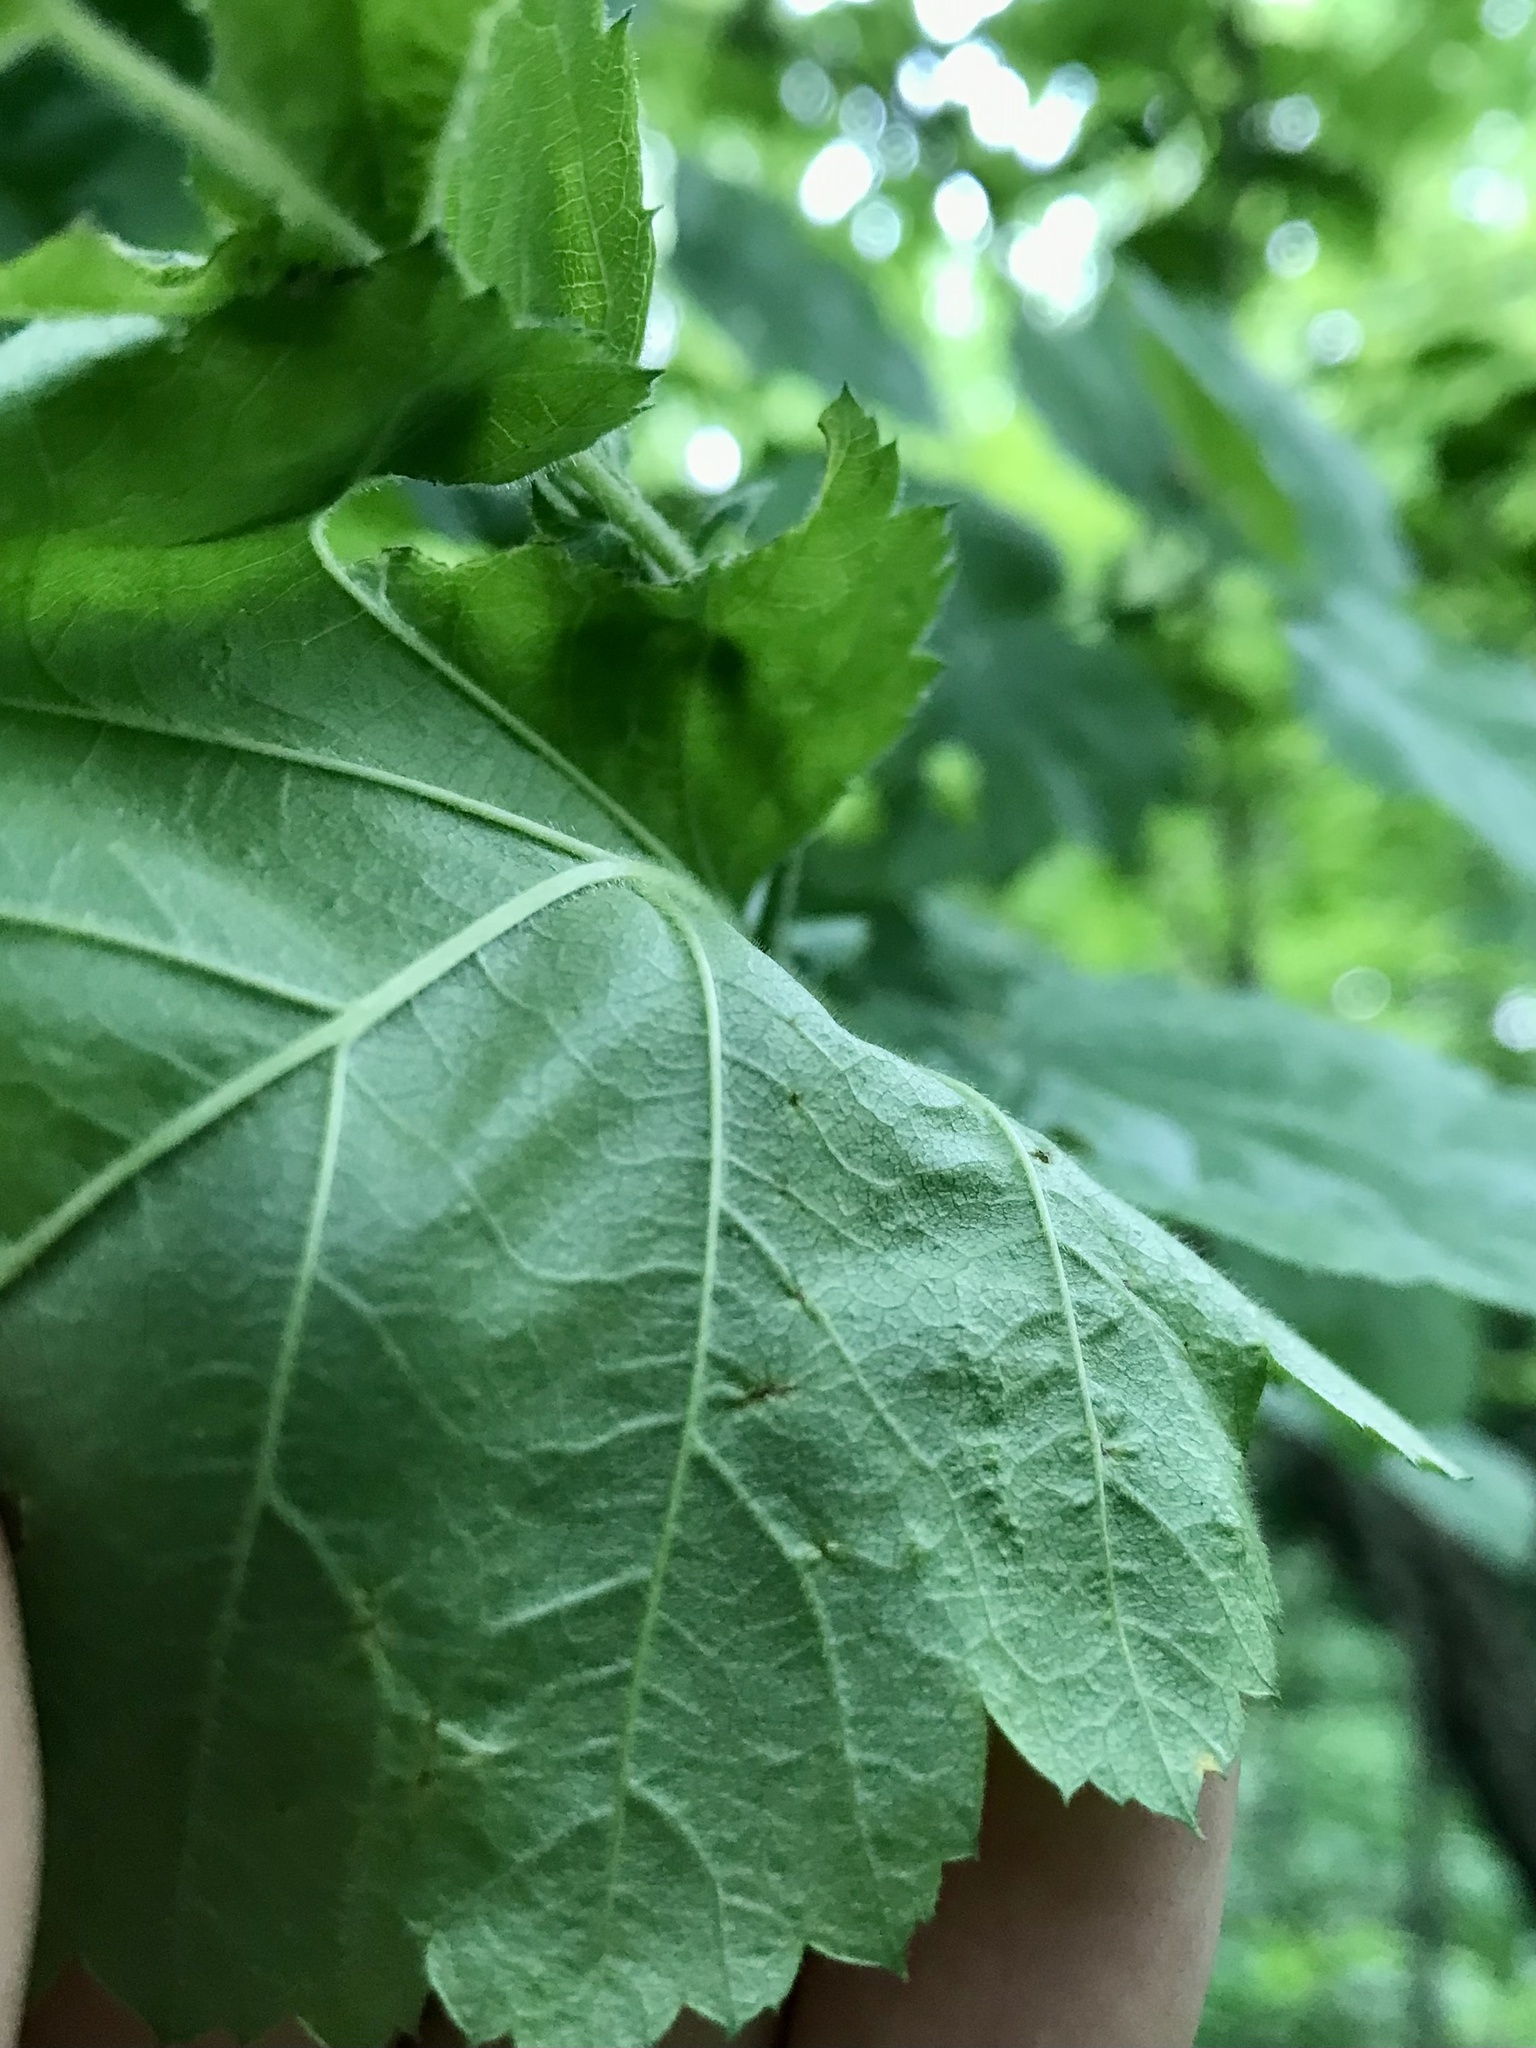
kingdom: Plantae
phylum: Tracheophyta
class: Magnoliopsida
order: Rosales
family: Rosaceae
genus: Crataegus
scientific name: Crataegus mollis
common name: Downy hawthorn
